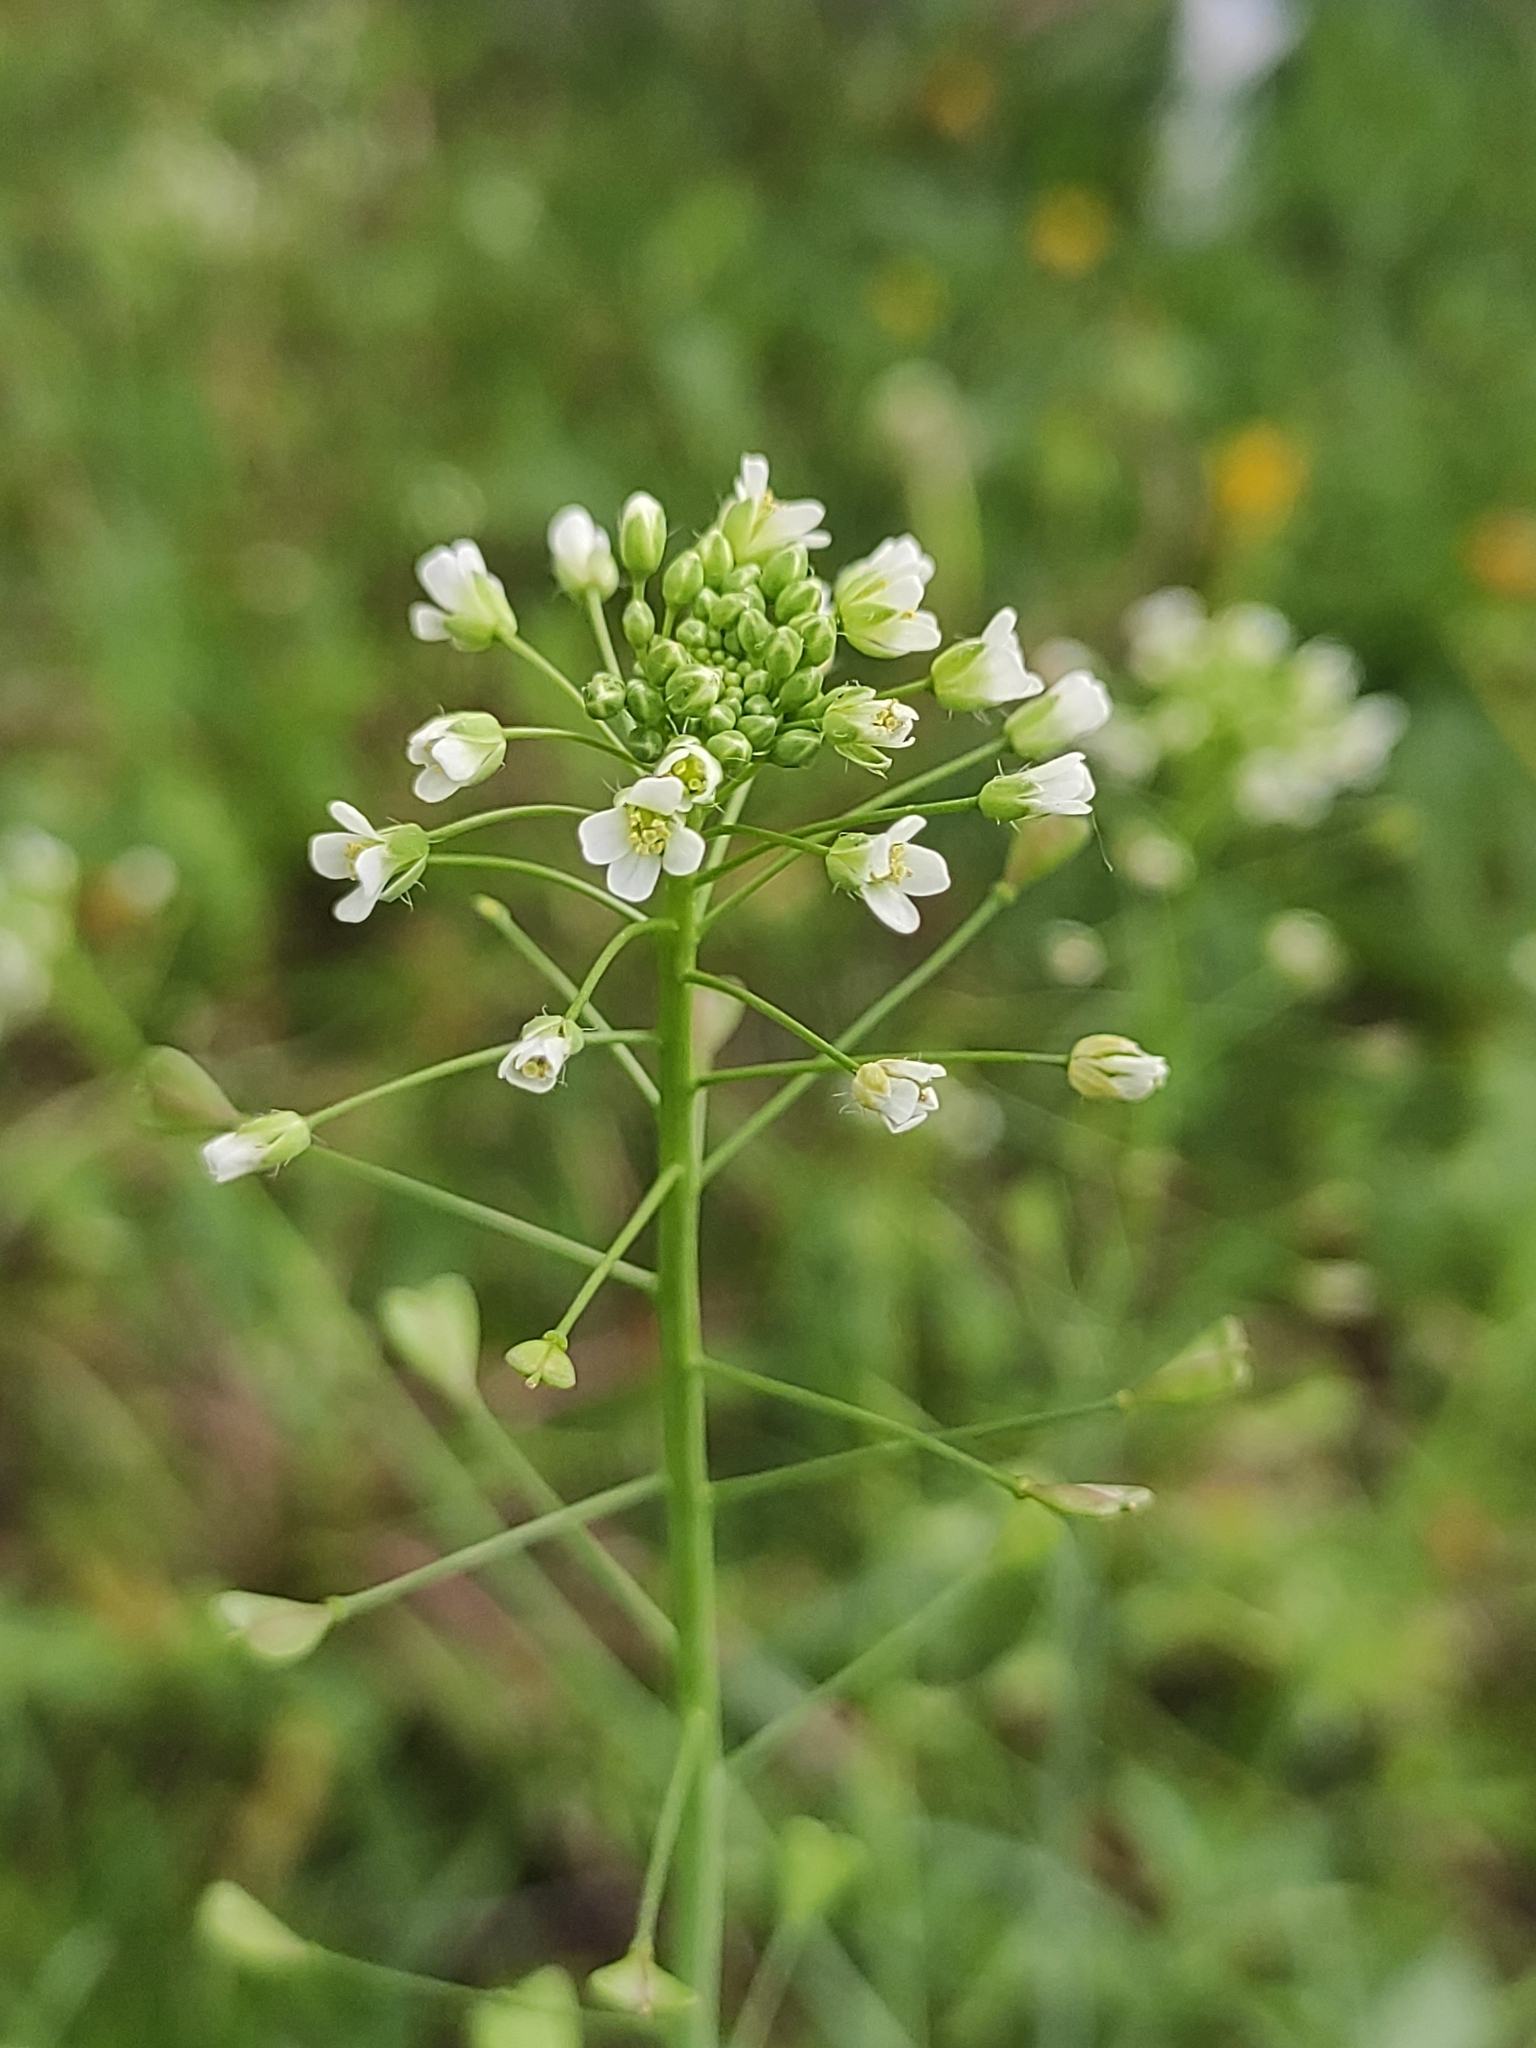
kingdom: Plantae
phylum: Tracheophyta
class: Magnoliopsida
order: Brassicales
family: Brassicaceae
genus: Capsella
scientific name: Capsella bursa-pastoris
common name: Shepherd's purse
